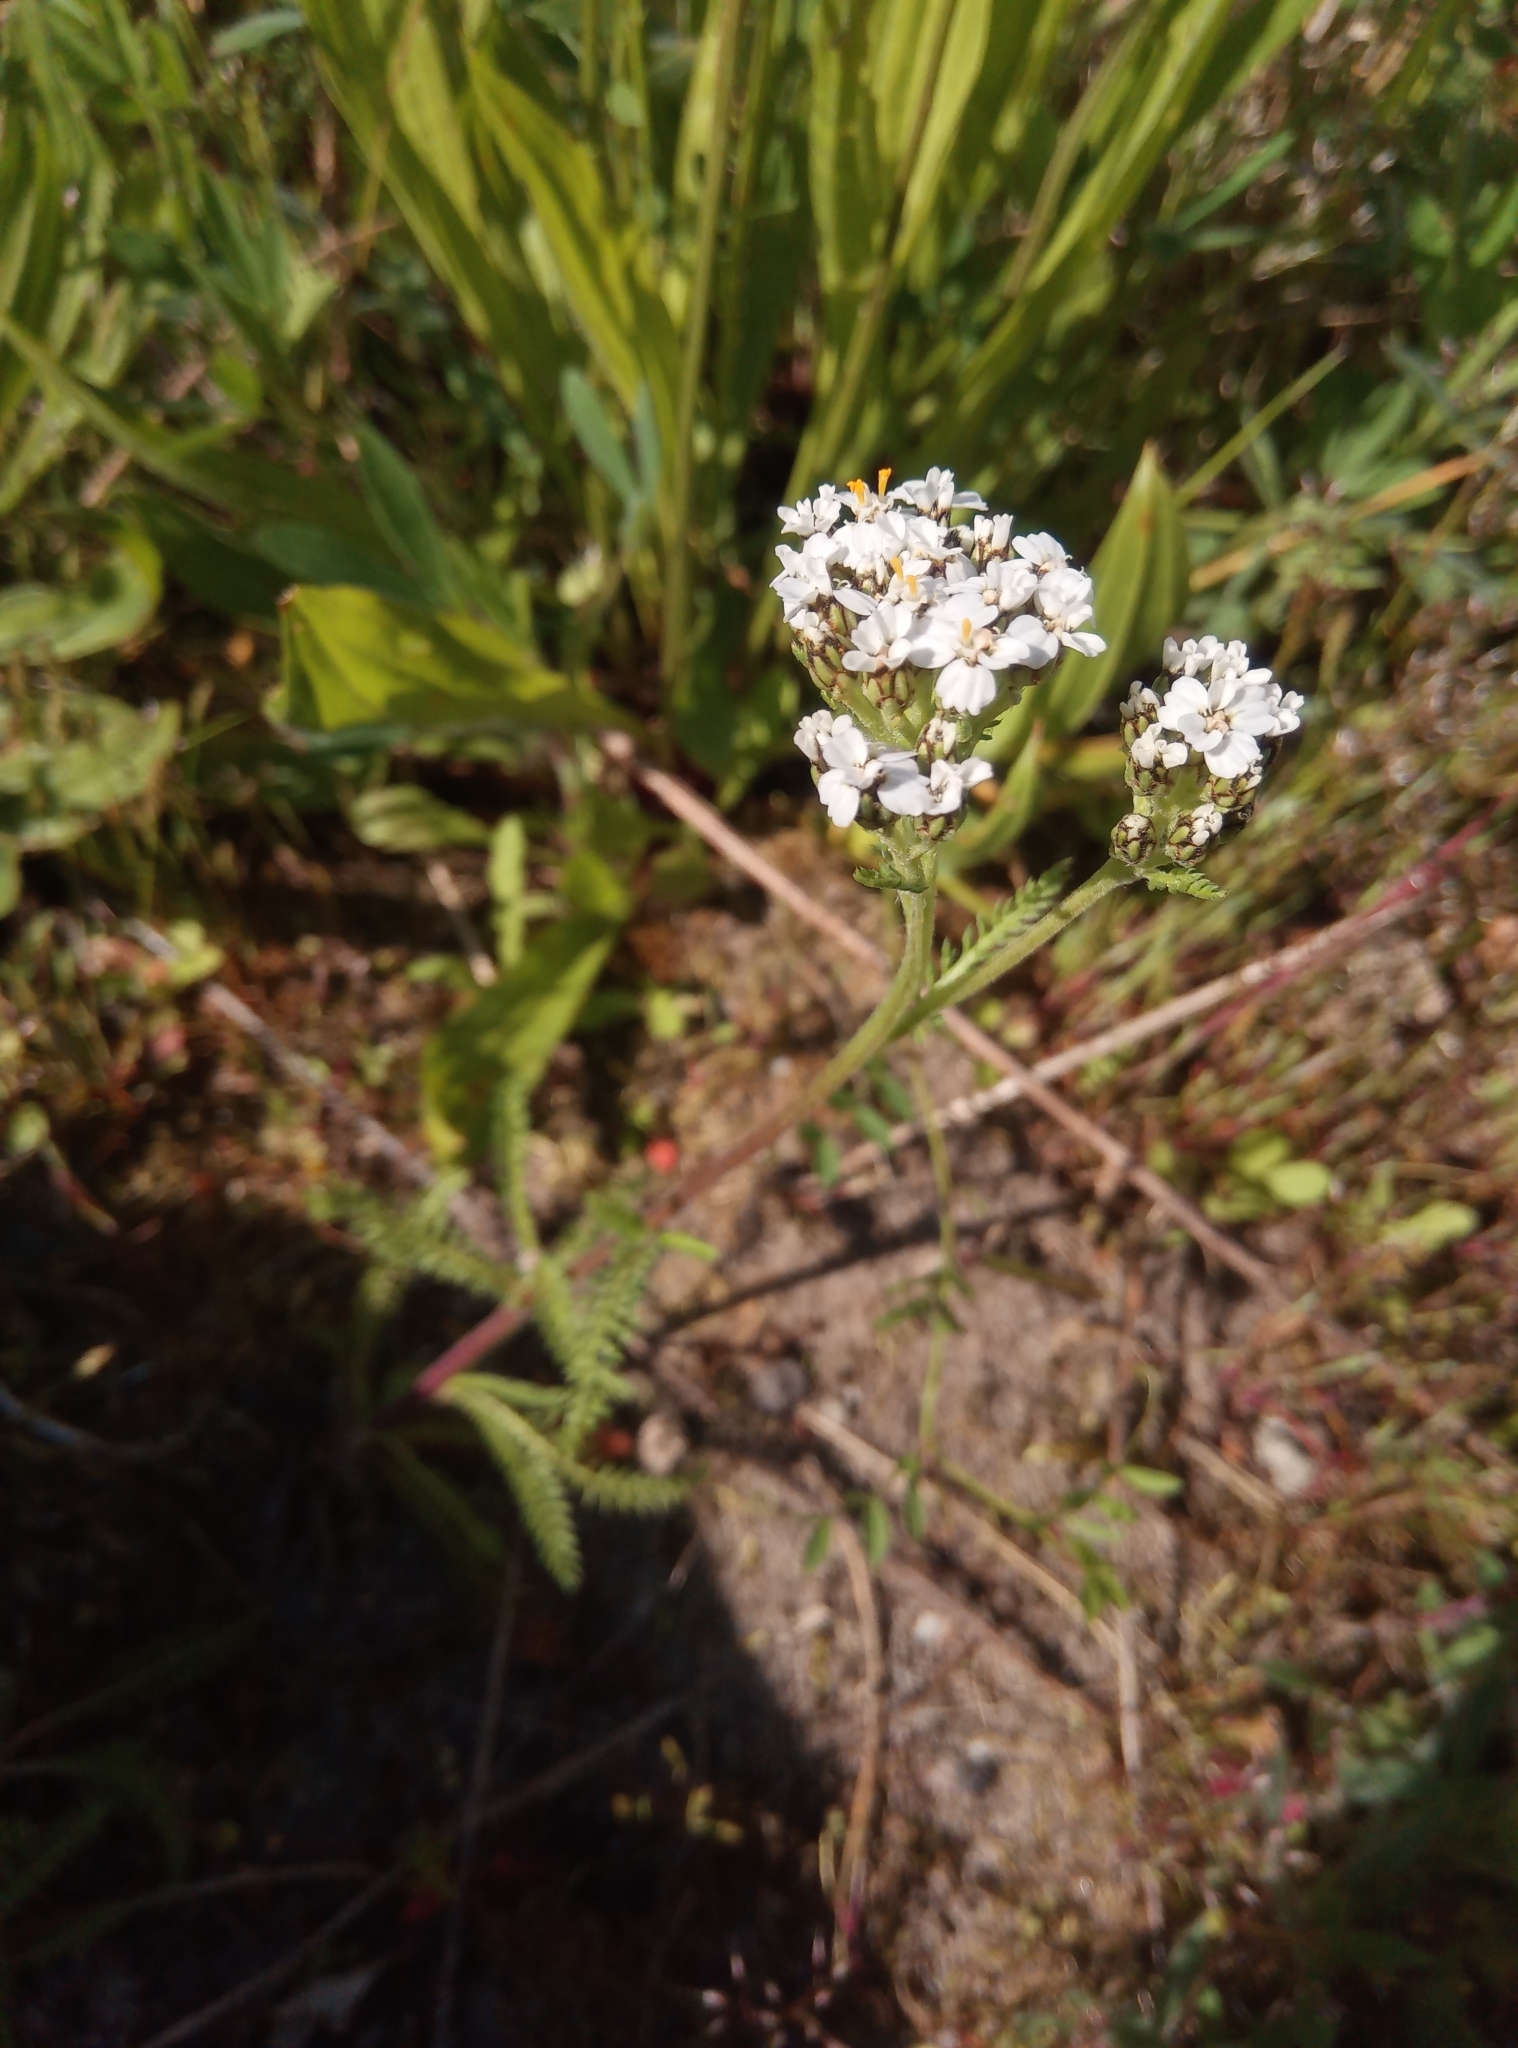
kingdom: Plantae
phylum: Tracheophyta
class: Magnoliopsida
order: Asterales
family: Asteraceae
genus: Achillea
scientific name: Achillea millefolium
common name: Yarrow
